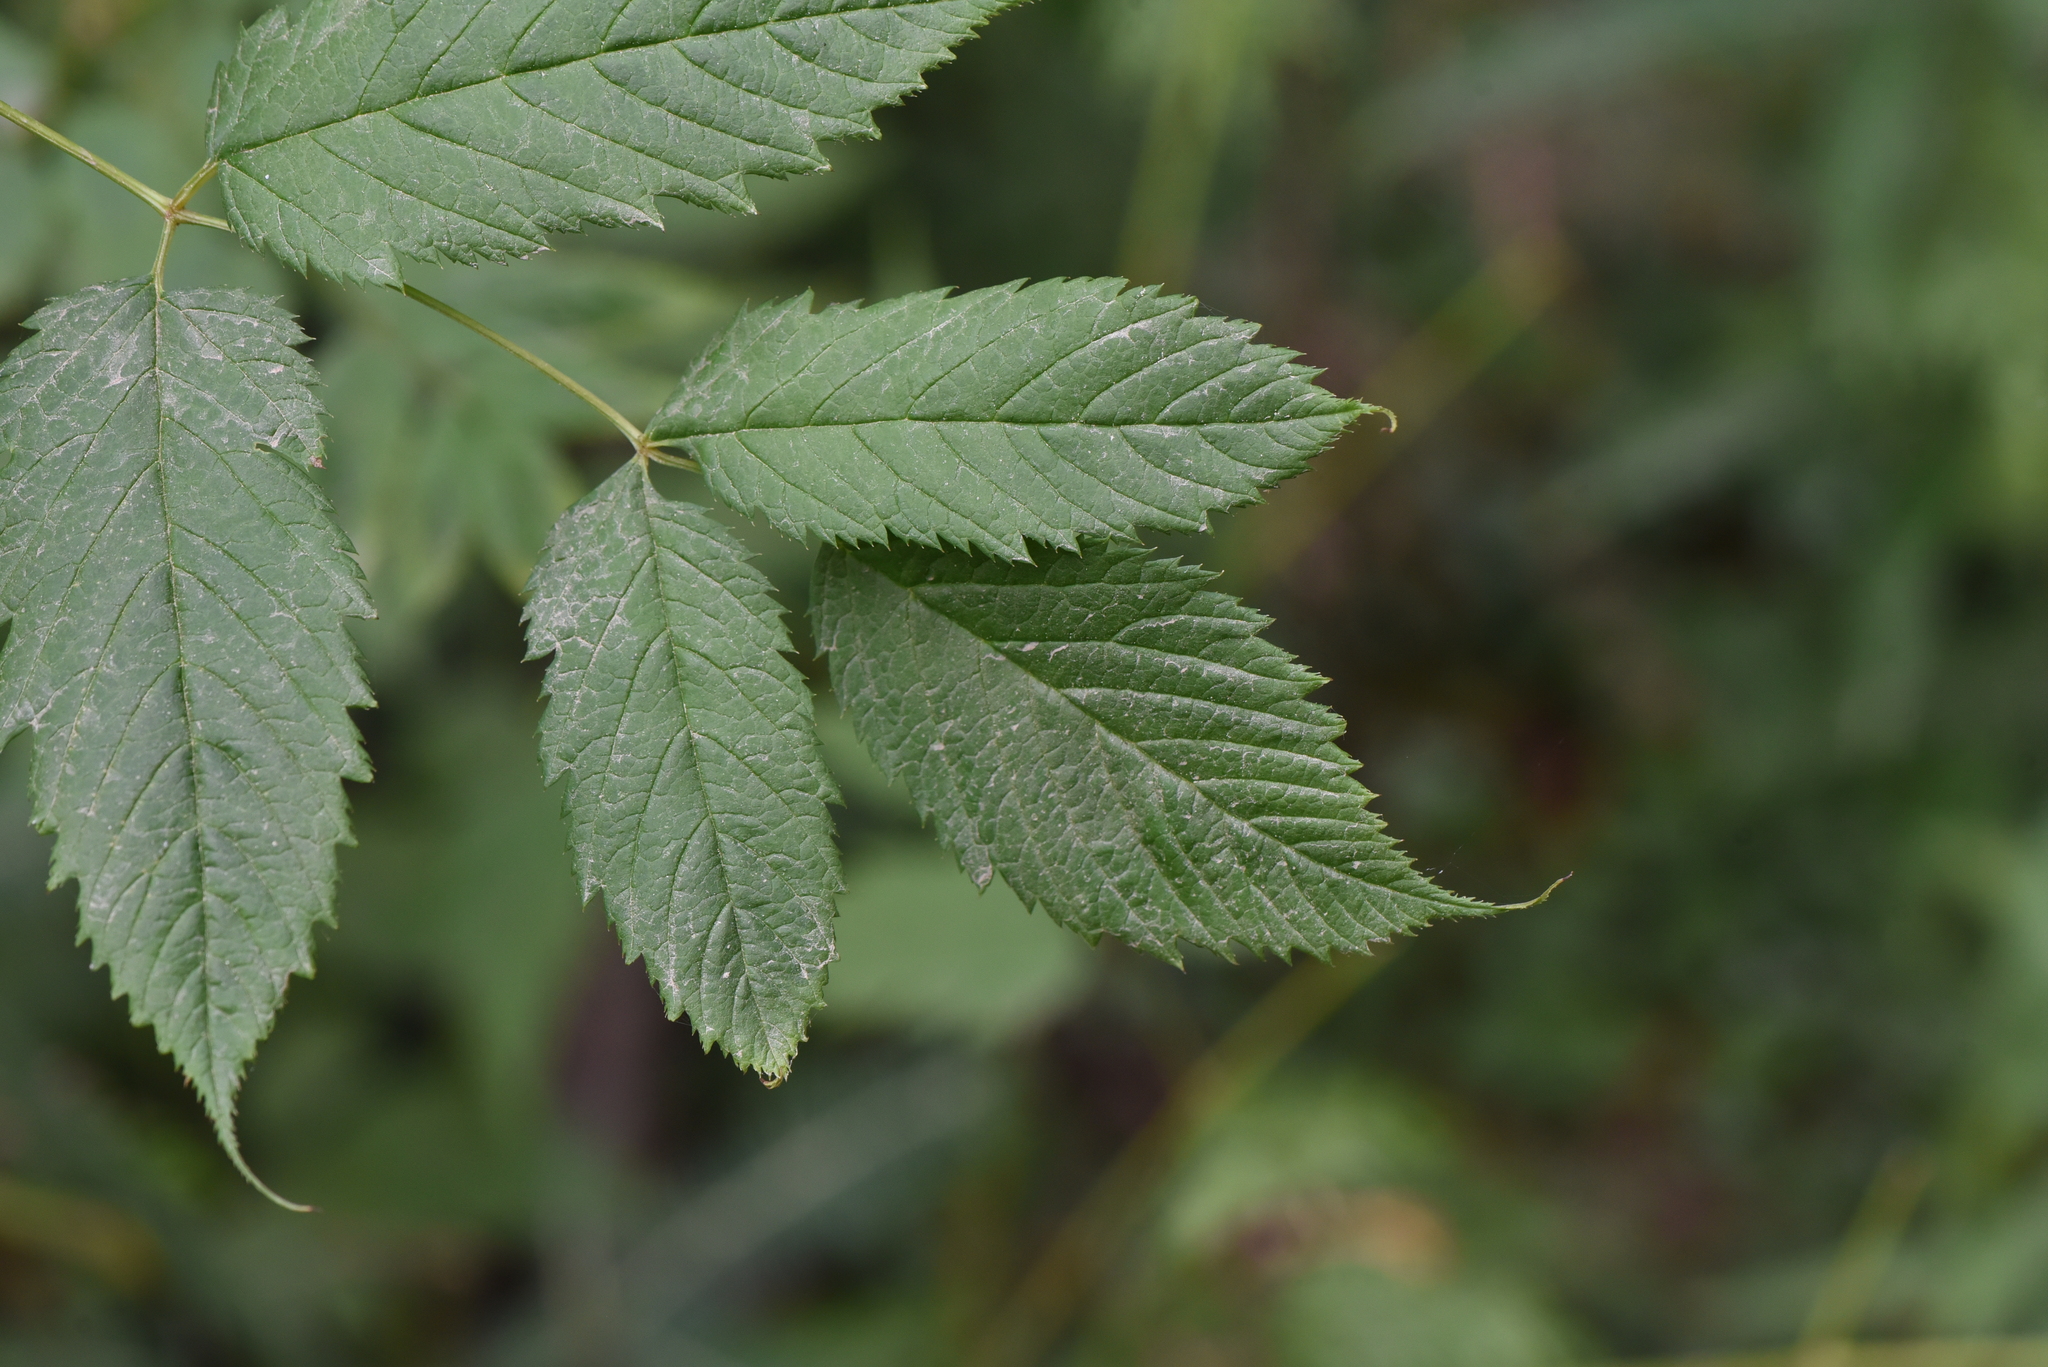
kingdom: Plantae
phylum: Tracheophyta
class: Magnoliopsida
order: Rosales
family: Rosaceae
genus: Aruncus
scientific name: Aruncus dioicus
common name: Buck's-beard
